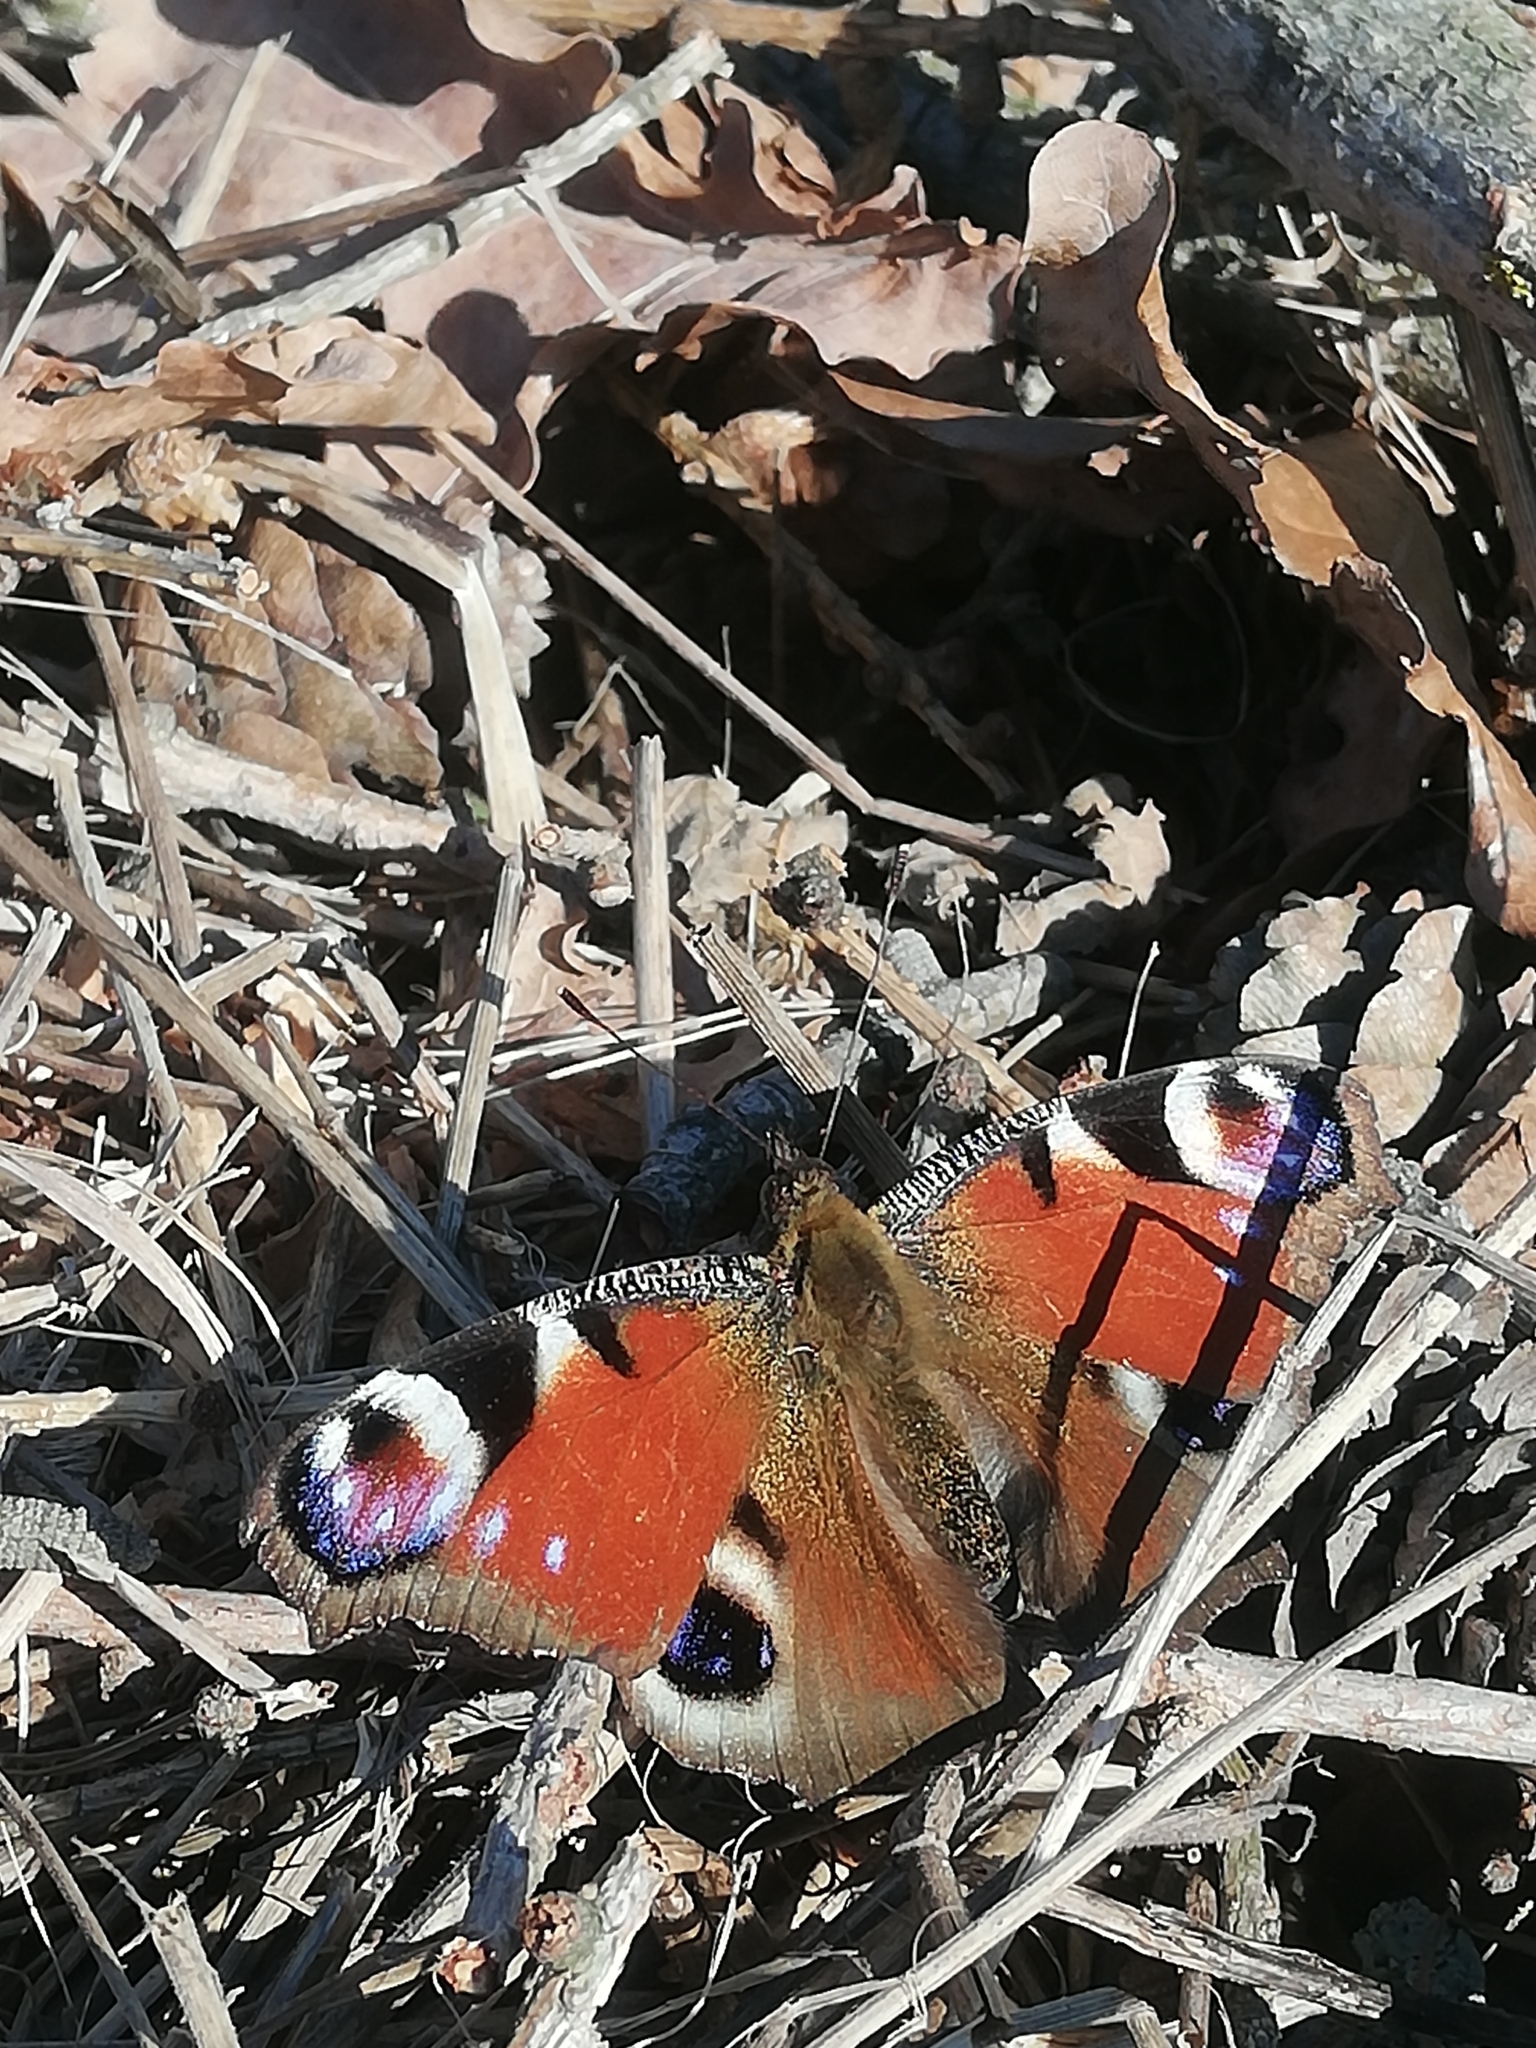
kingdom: Animalia
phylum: Arthropoda
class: Insecta
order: Lepidoptera
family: Nymphalidae
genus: Aglais
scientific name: Aglais io
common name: Peacock
